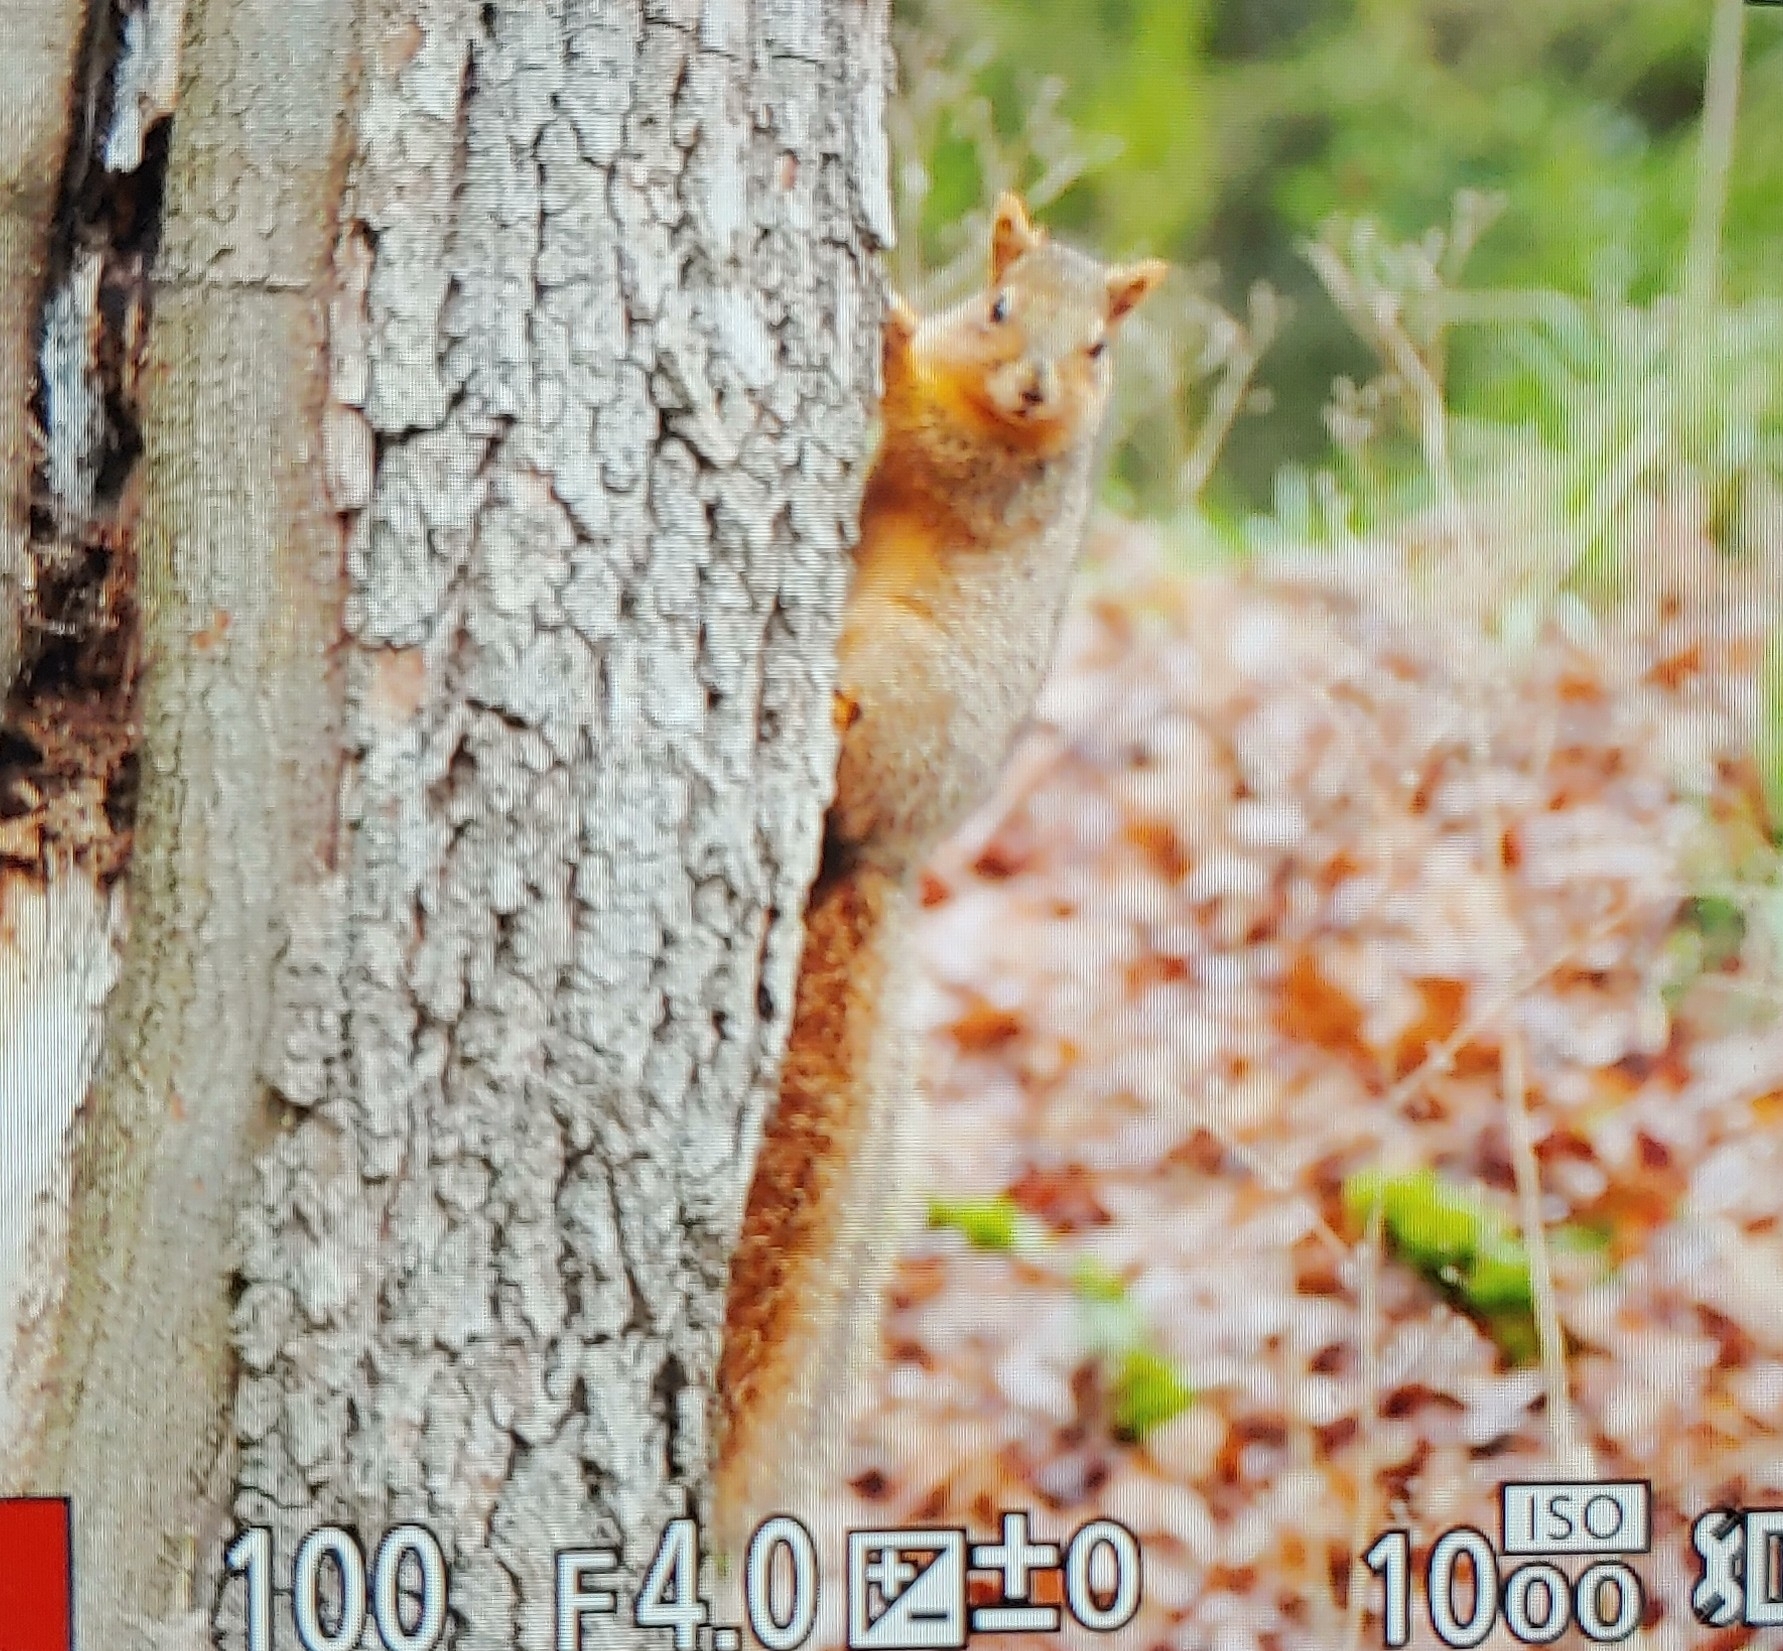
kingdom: Animalia
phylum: Chordata
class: Mammalia
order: Rodentia
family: Sciuridae
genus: Sciurus
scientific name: Sciurus niger
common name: Fox squirrel
